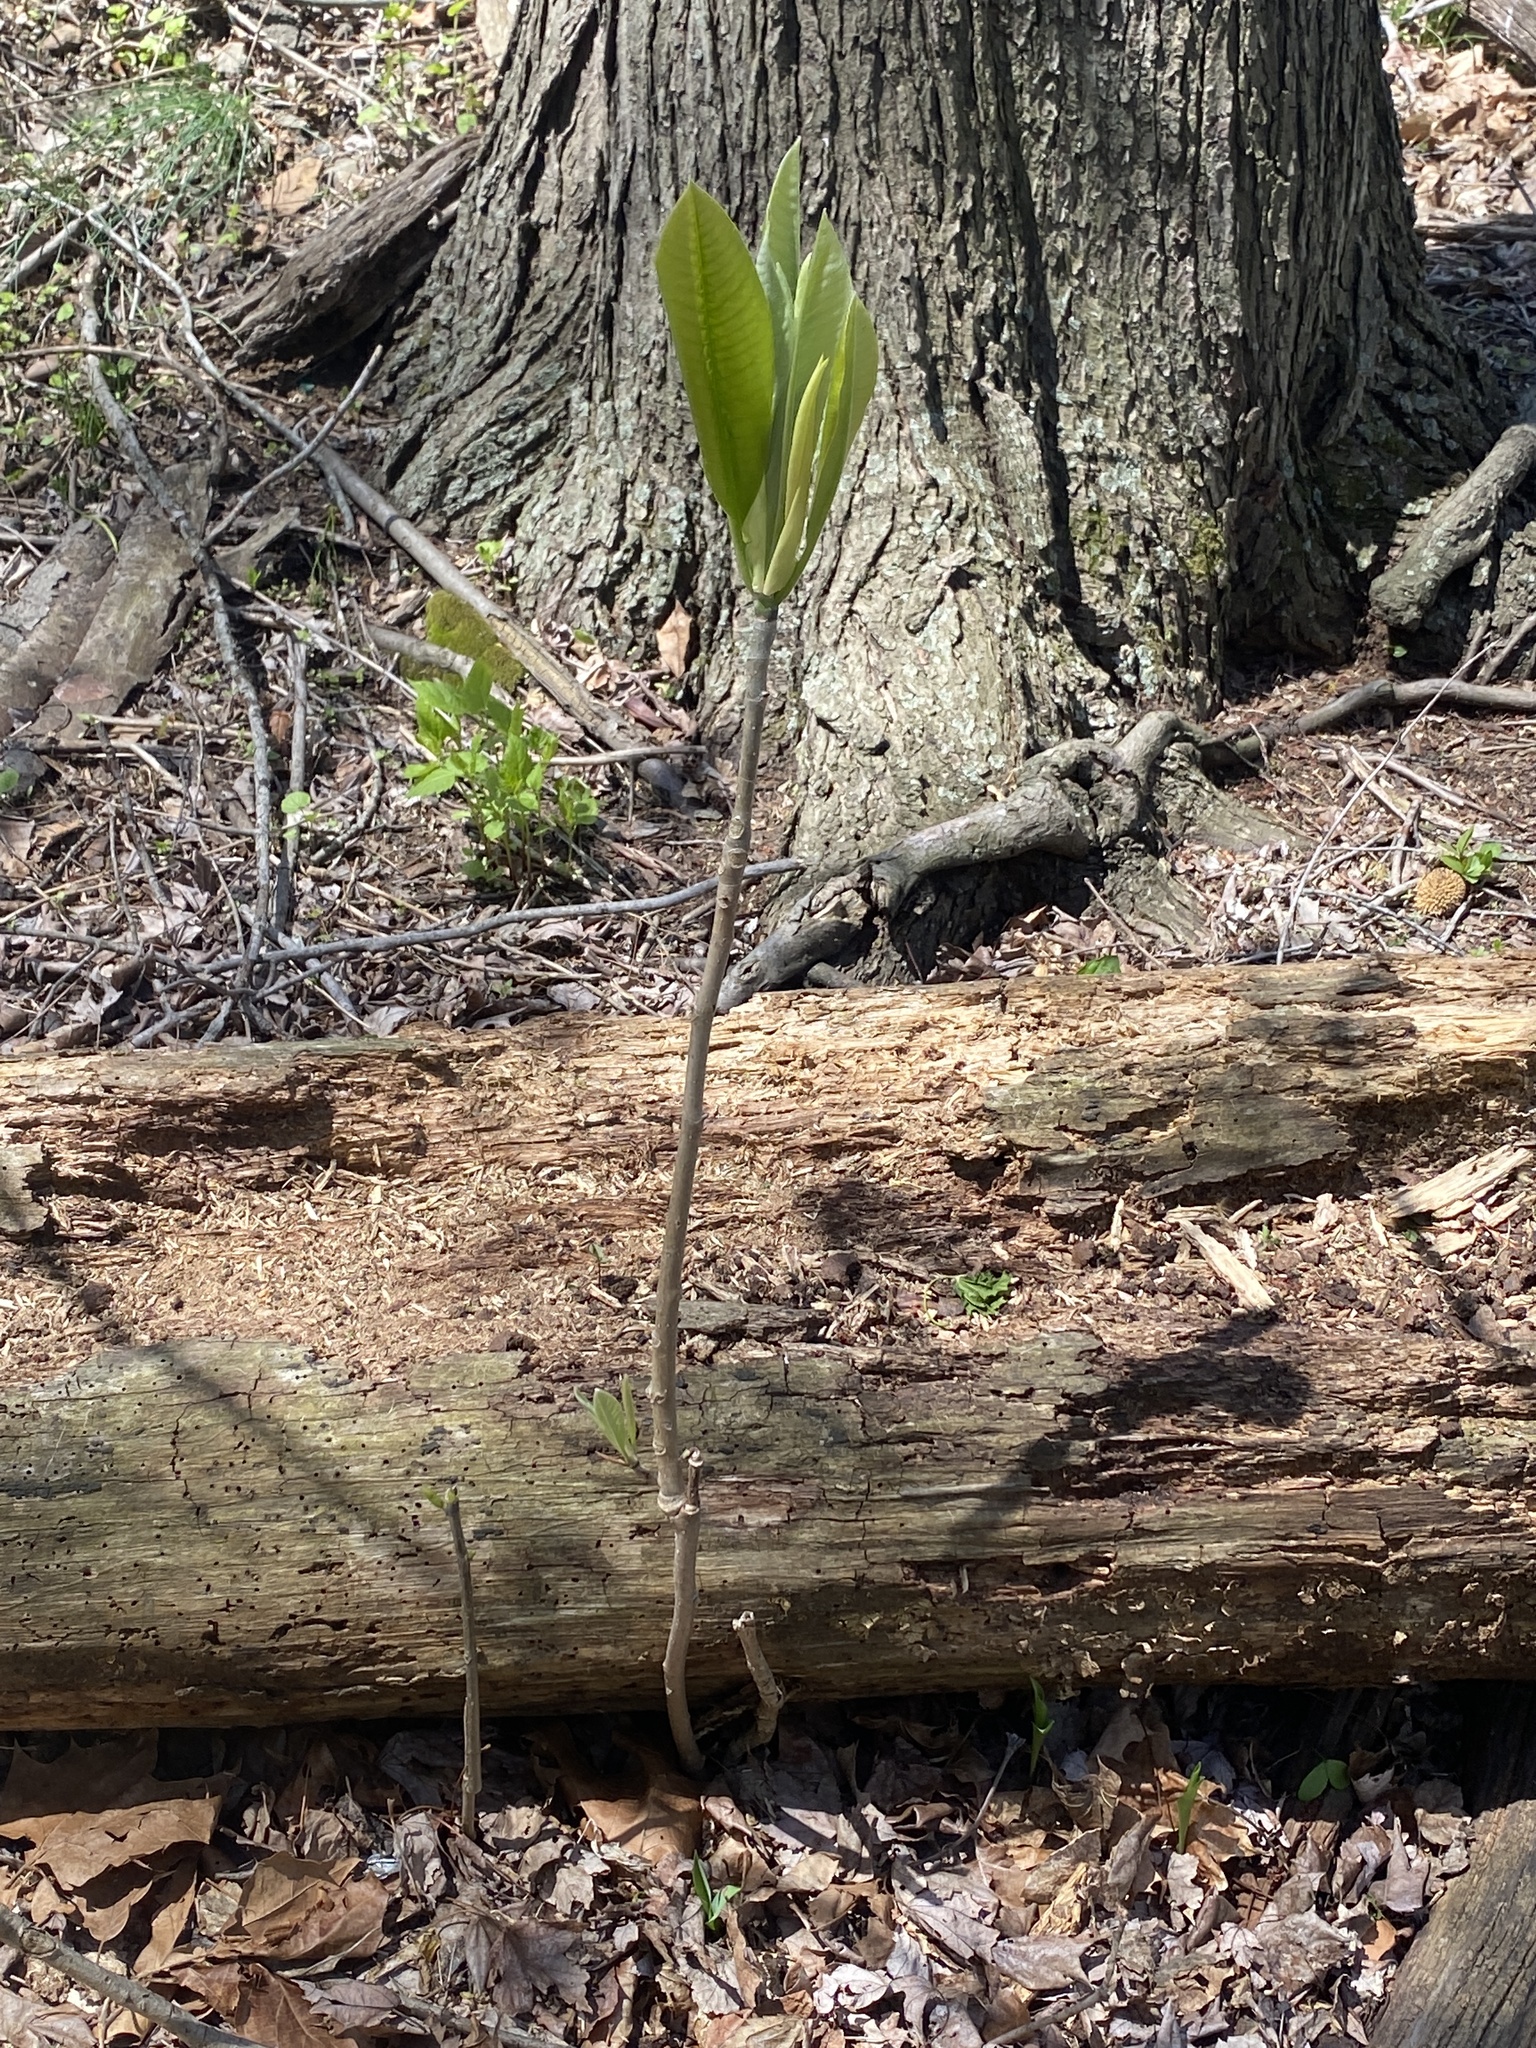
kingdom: Plantae
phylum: Tracheophyta
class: Magnoliopsida
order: Magnoliales
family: Magnoliaceae
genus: Magnolia
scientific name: Magnolia tripetala
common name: Umbrella magnolia
